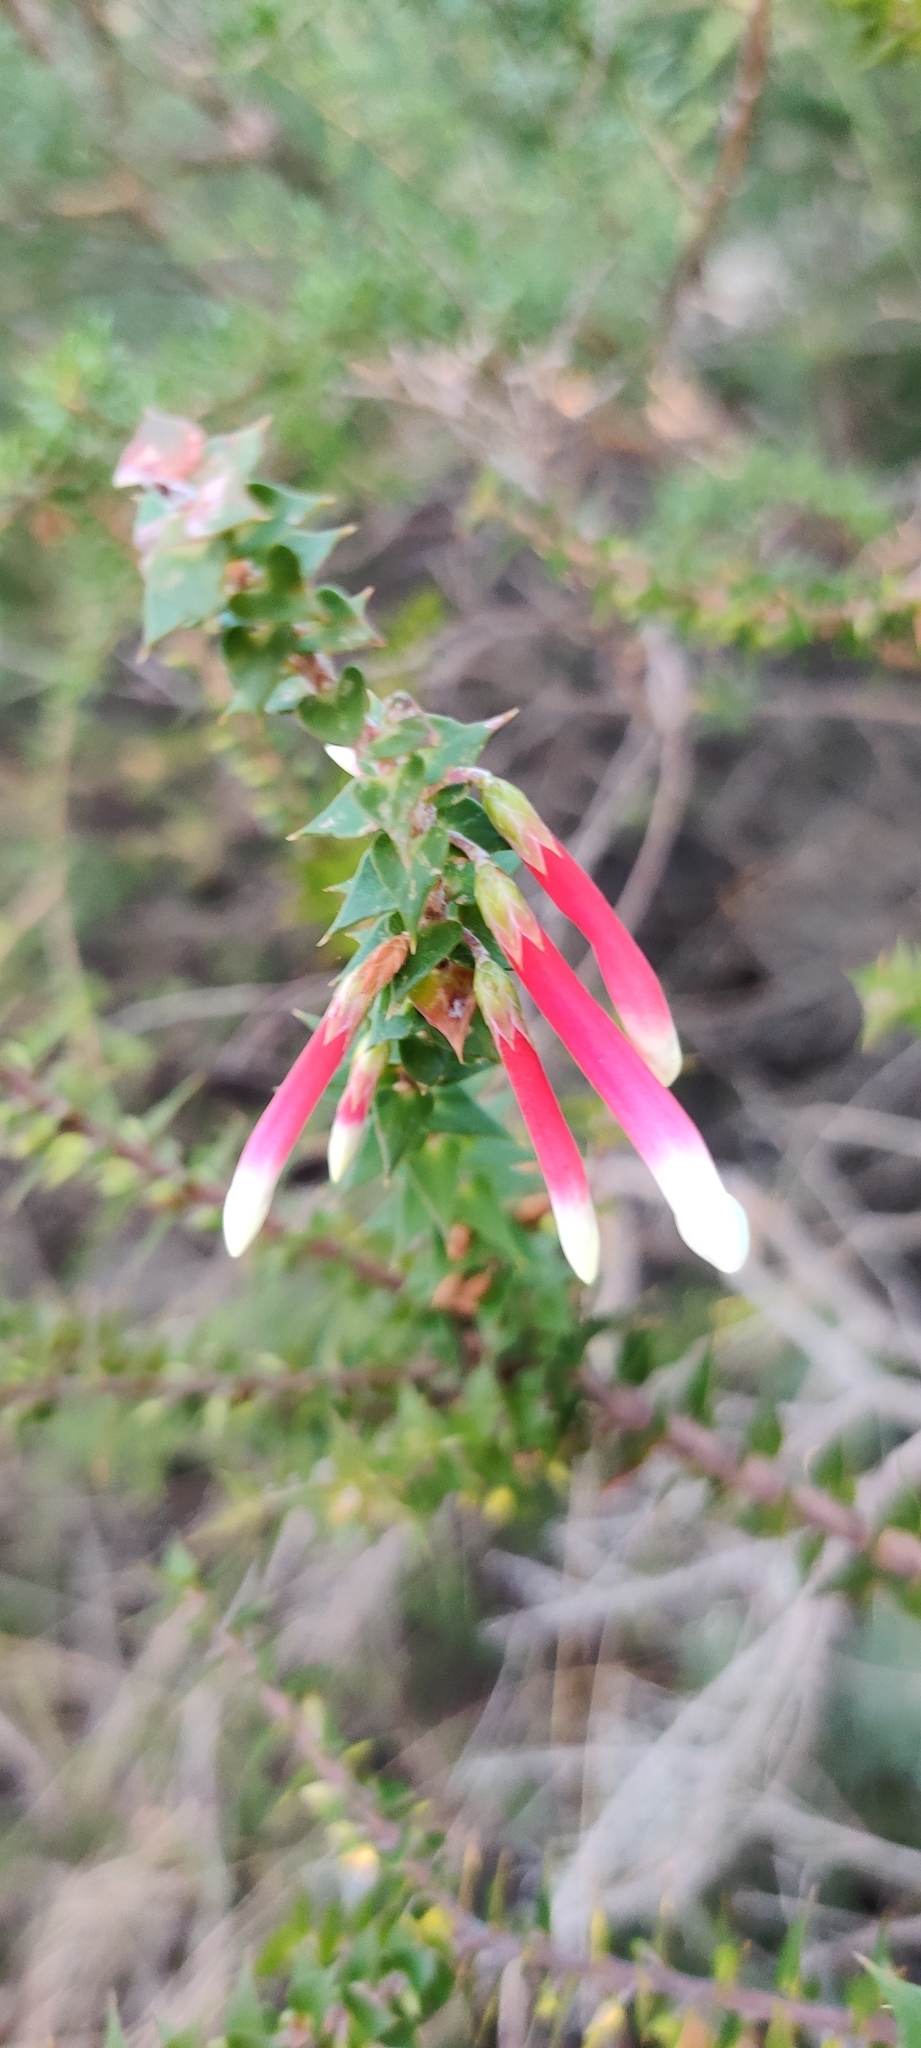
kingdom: Plantae
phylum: Tracheophyta
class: Magnoliopsida
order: Ericales
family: Ericaceae
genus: Epacris
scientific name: Epacris longiflora
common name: Fuchsia-heath
